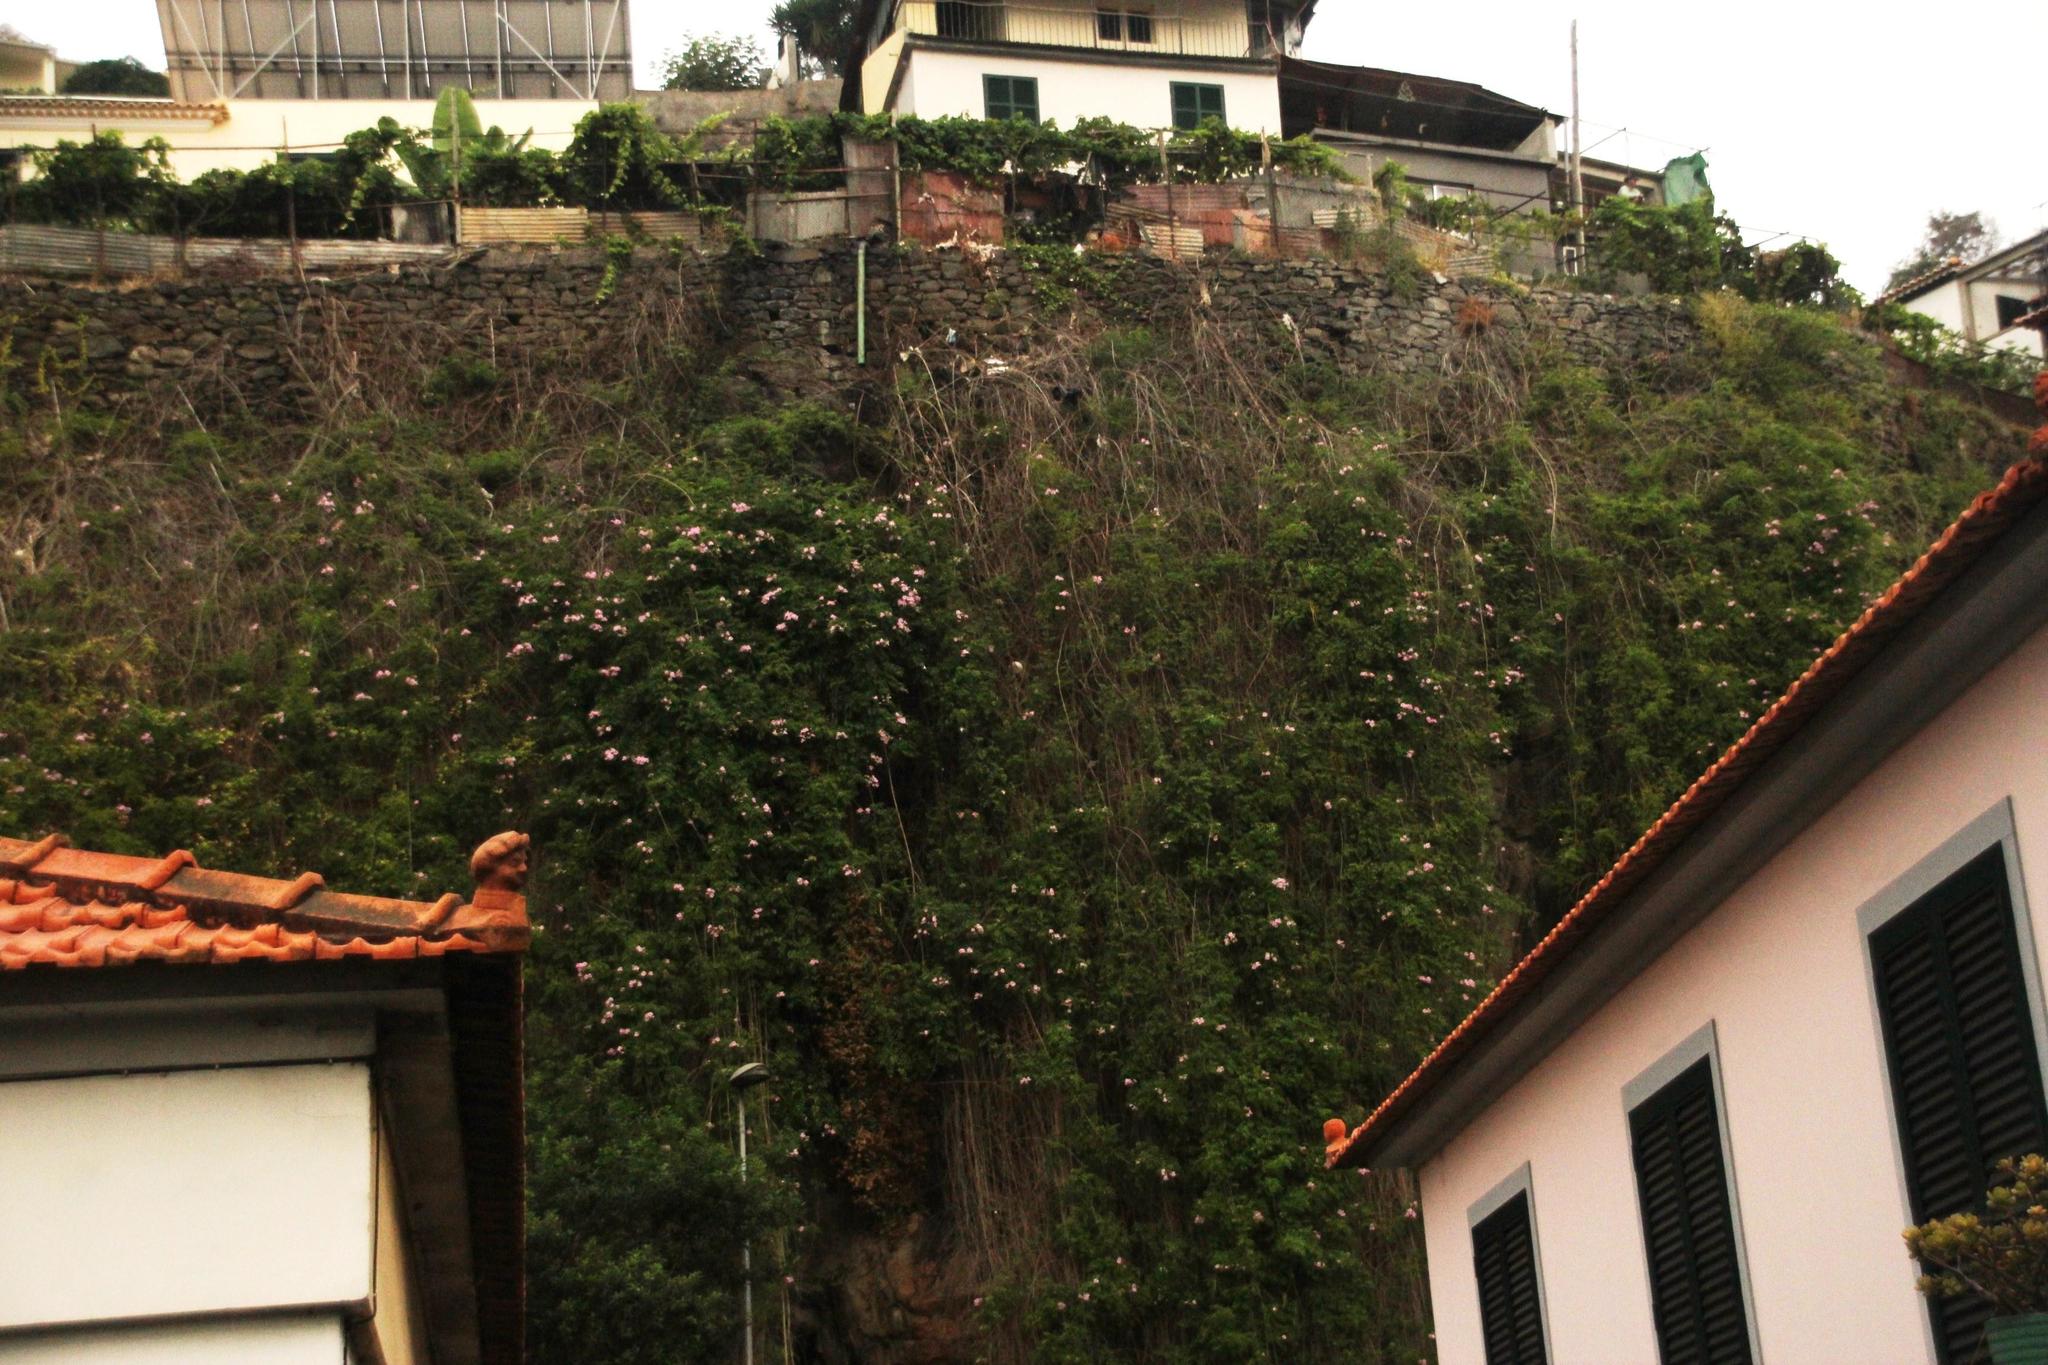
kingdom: Plantae
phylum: Tracheophyta
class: Magnoliopsida
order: Lamiales
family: Bignoniaceae
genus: Podranea
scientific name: Podranea ricasoliana
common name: Zimbabwe creeper
